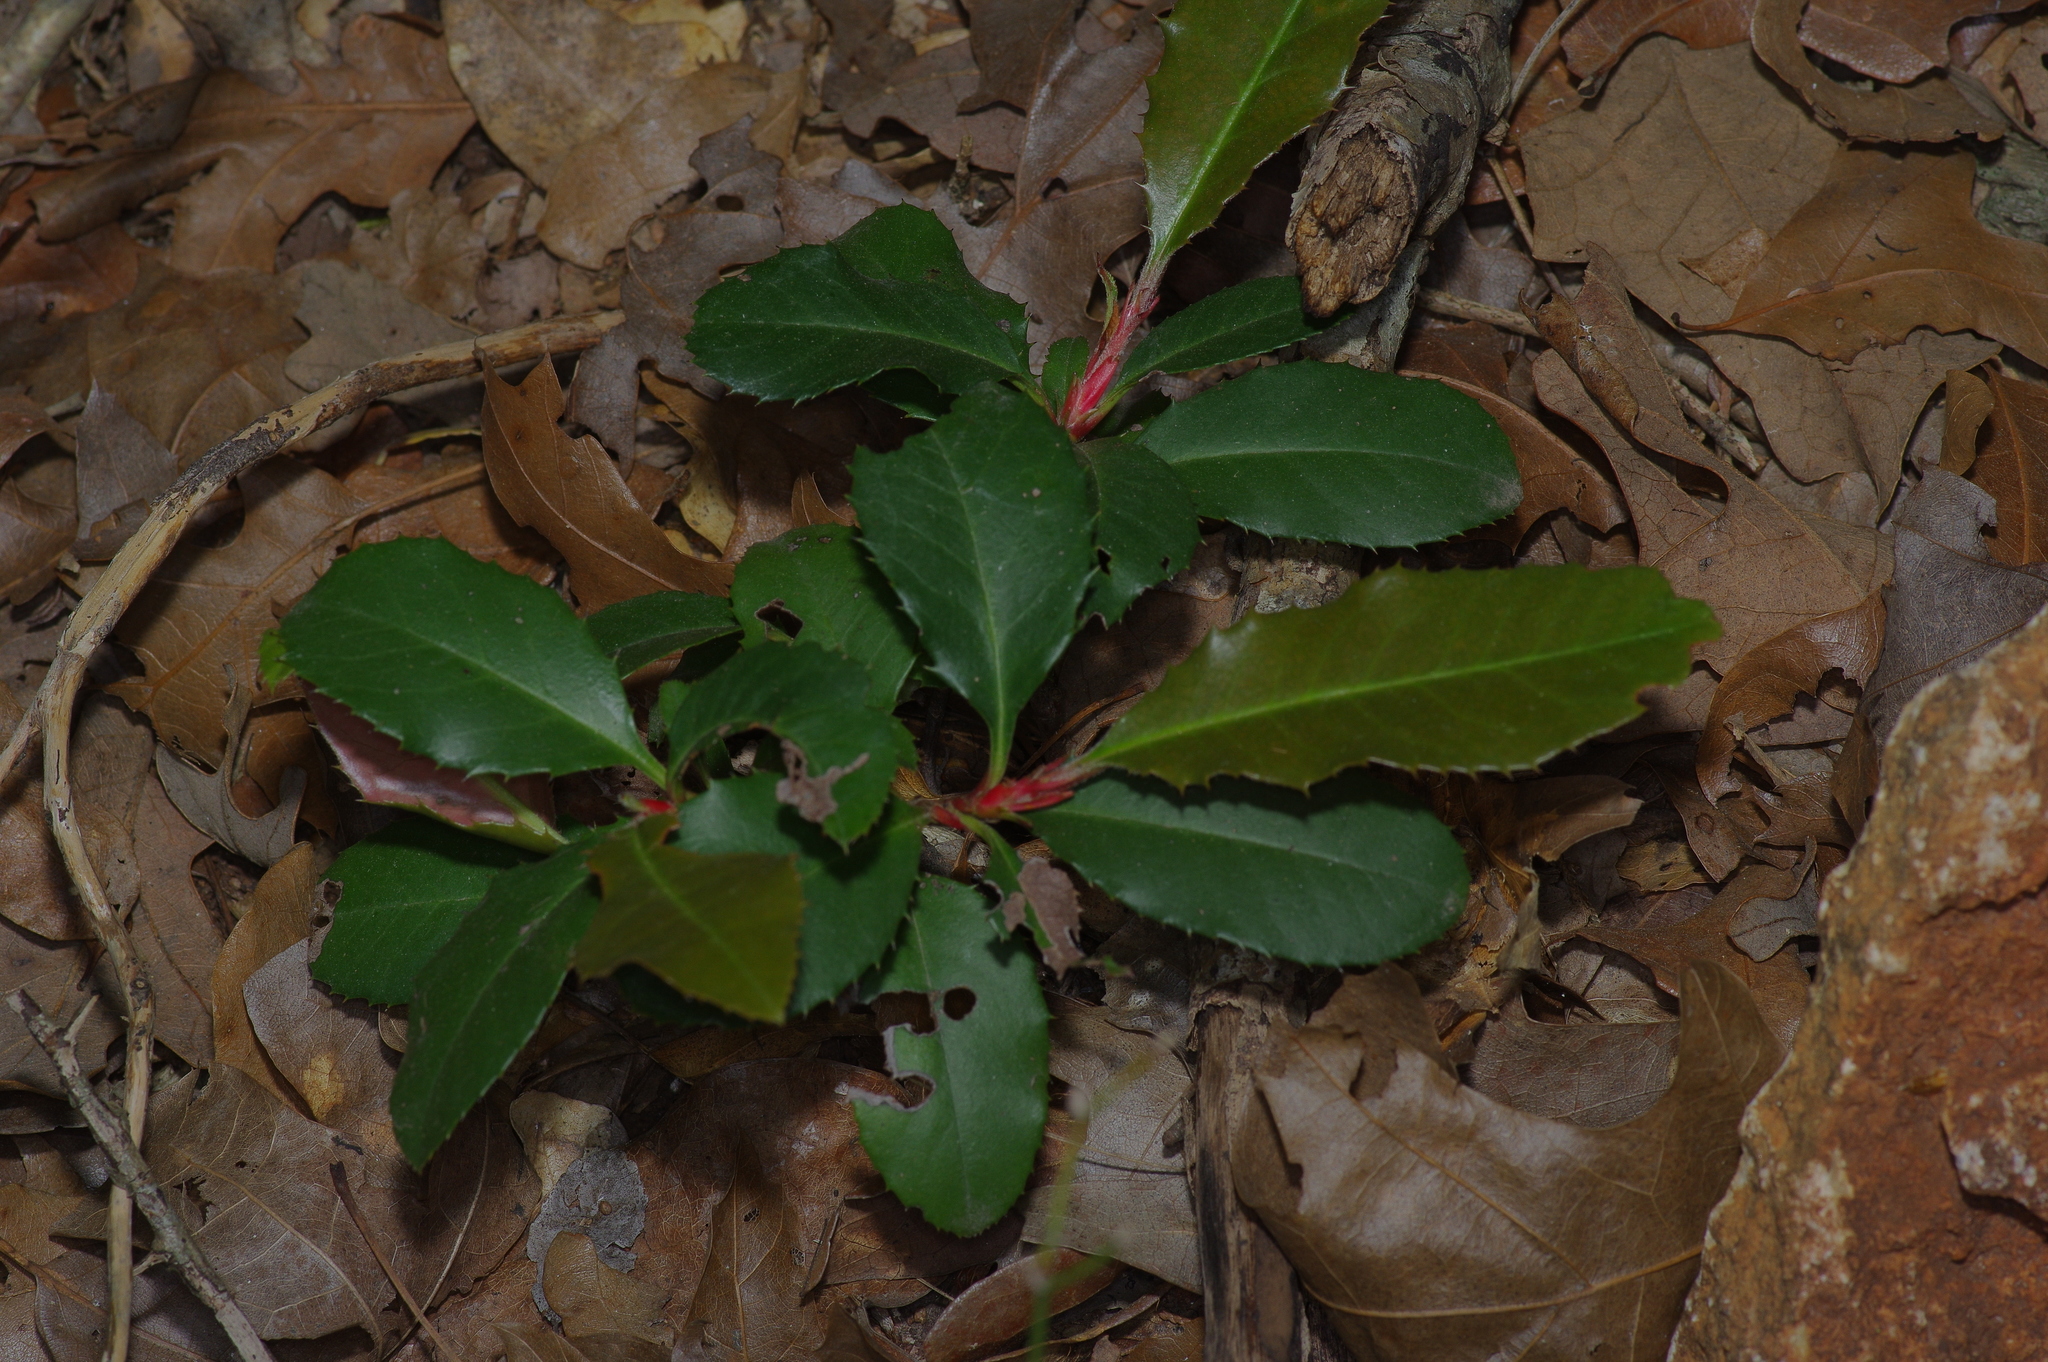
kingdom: Plantae
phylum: Tracheophyta
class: Magnoliopsida
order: Rosales
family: Rosaceae
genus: Photinia
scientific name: Photinia serratifolia
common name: Taiwanese photinia
